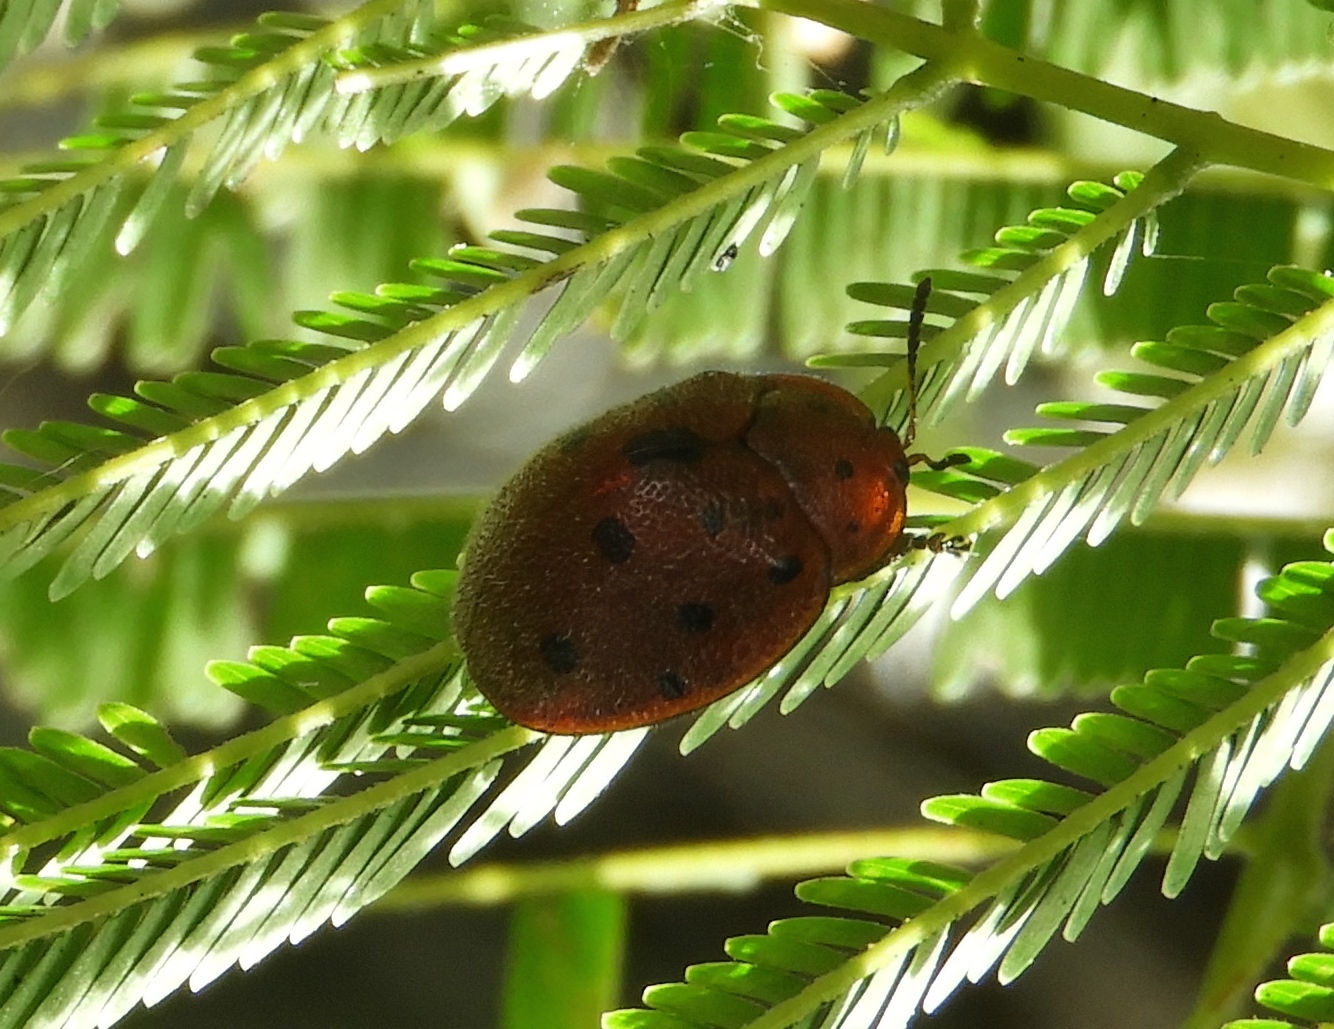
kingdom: Animalia
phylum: Arthropoda
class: Insecta
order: Coleoptera
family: Chrysomelidae
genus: Chelymorpha
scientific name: Chelymorpha
